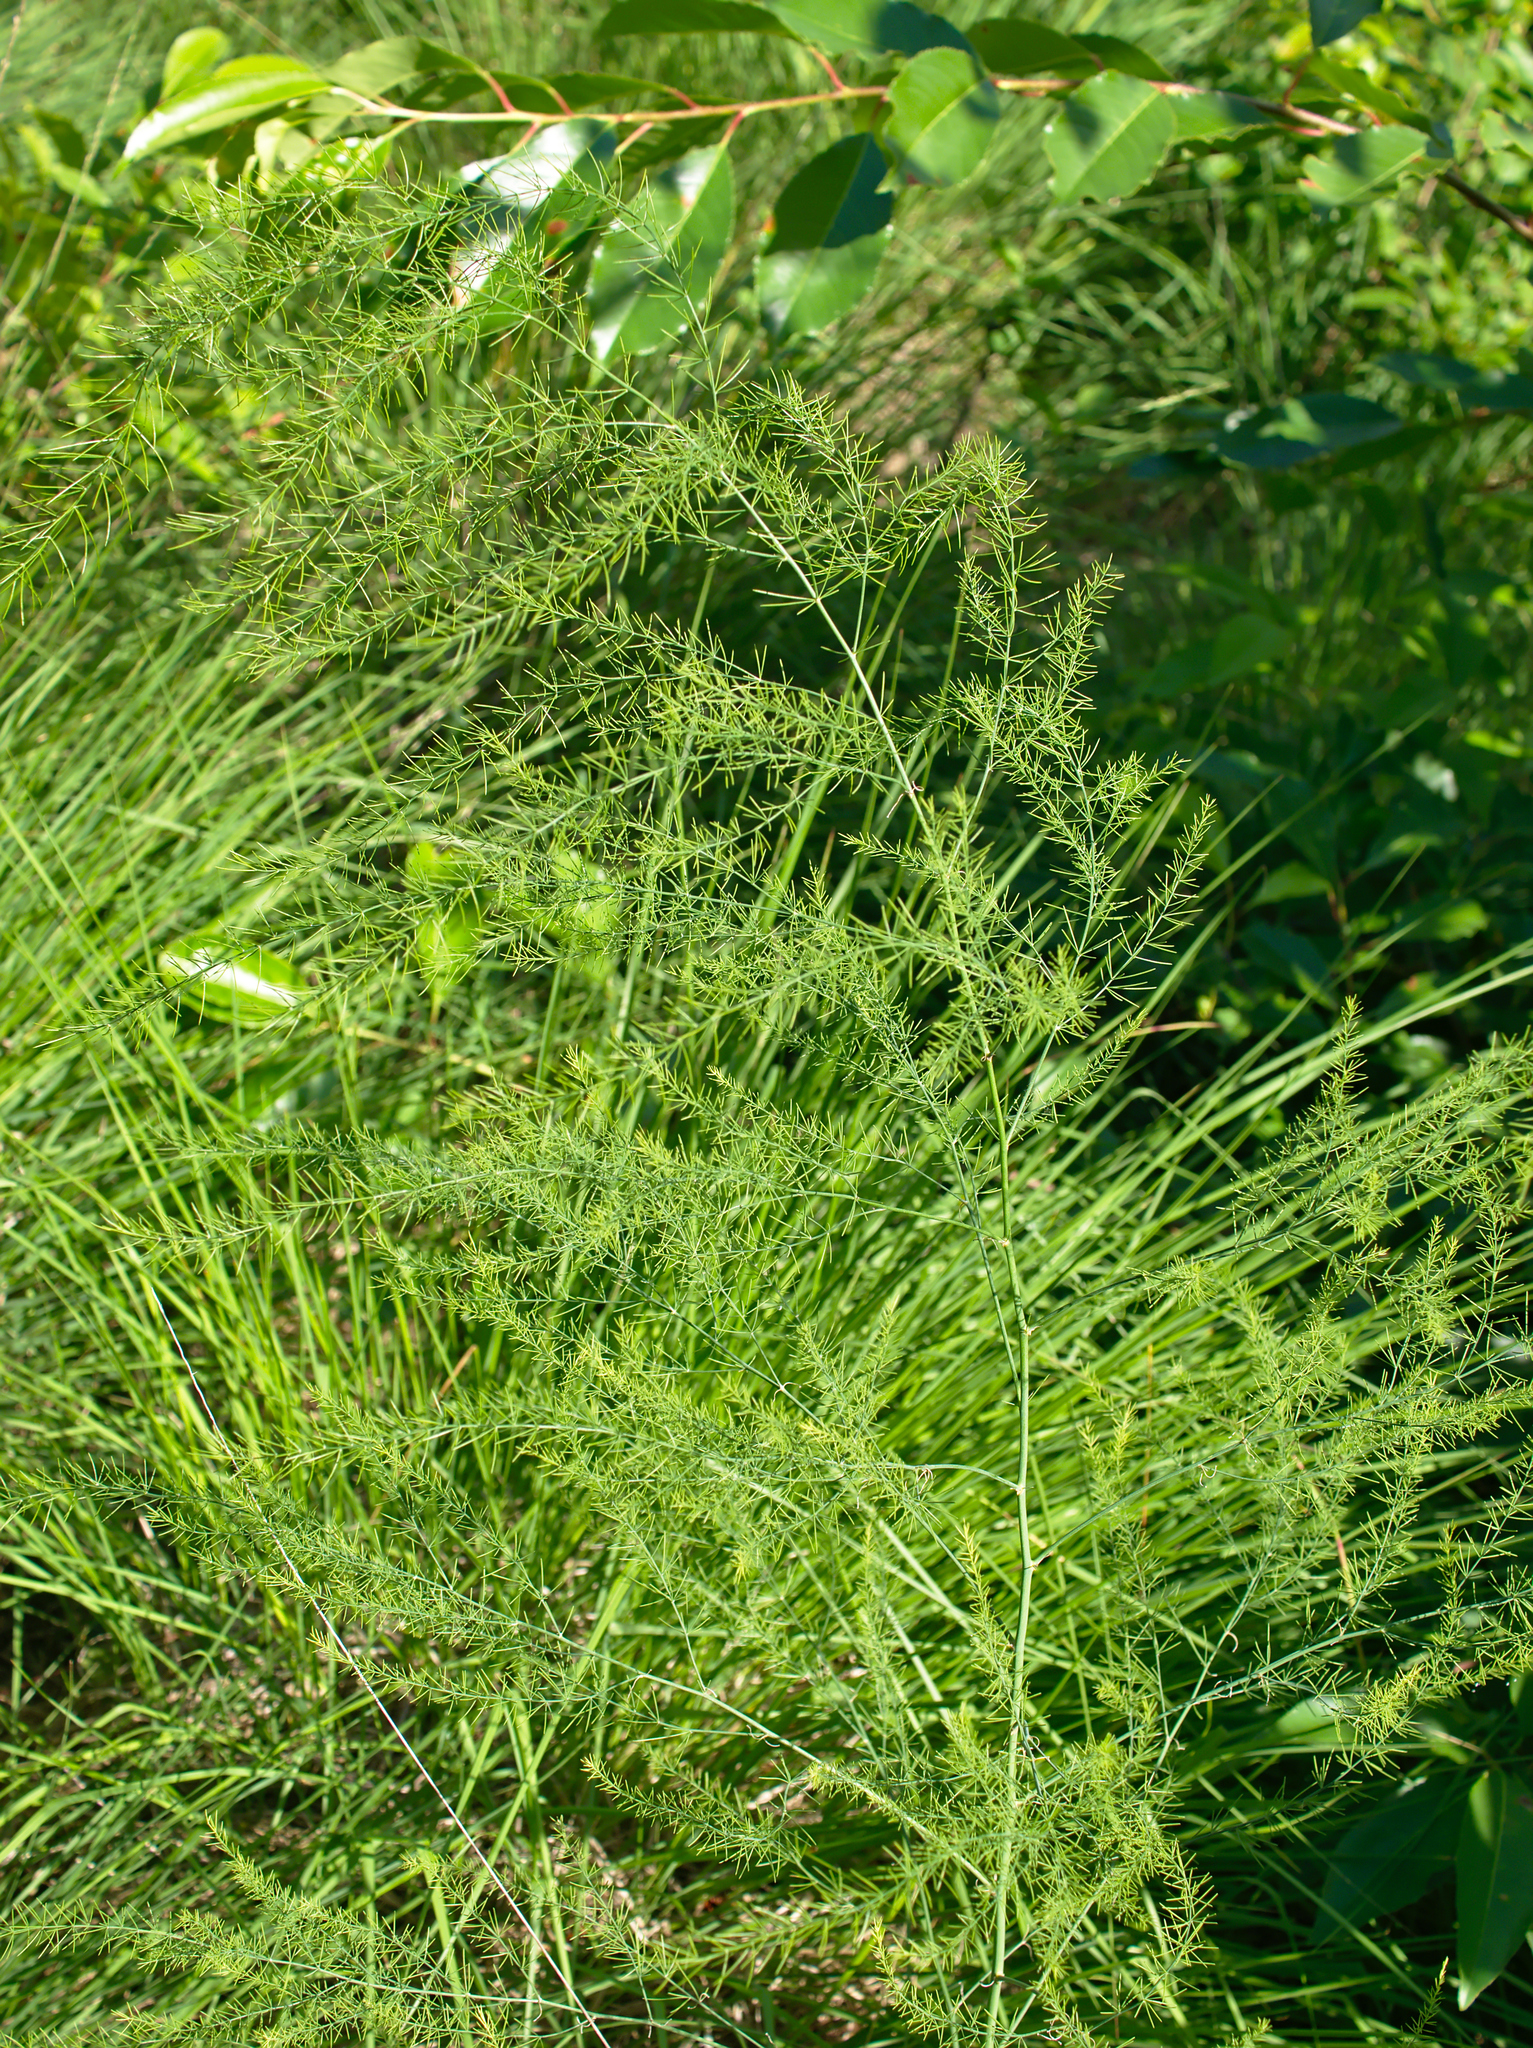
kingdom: Plantae
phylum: Tracheophyta
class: Liliopsida
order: Asparagales
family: Asparagaceae
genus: Asparagus
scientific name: Asparagus officinalis
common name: Garden asparagus
